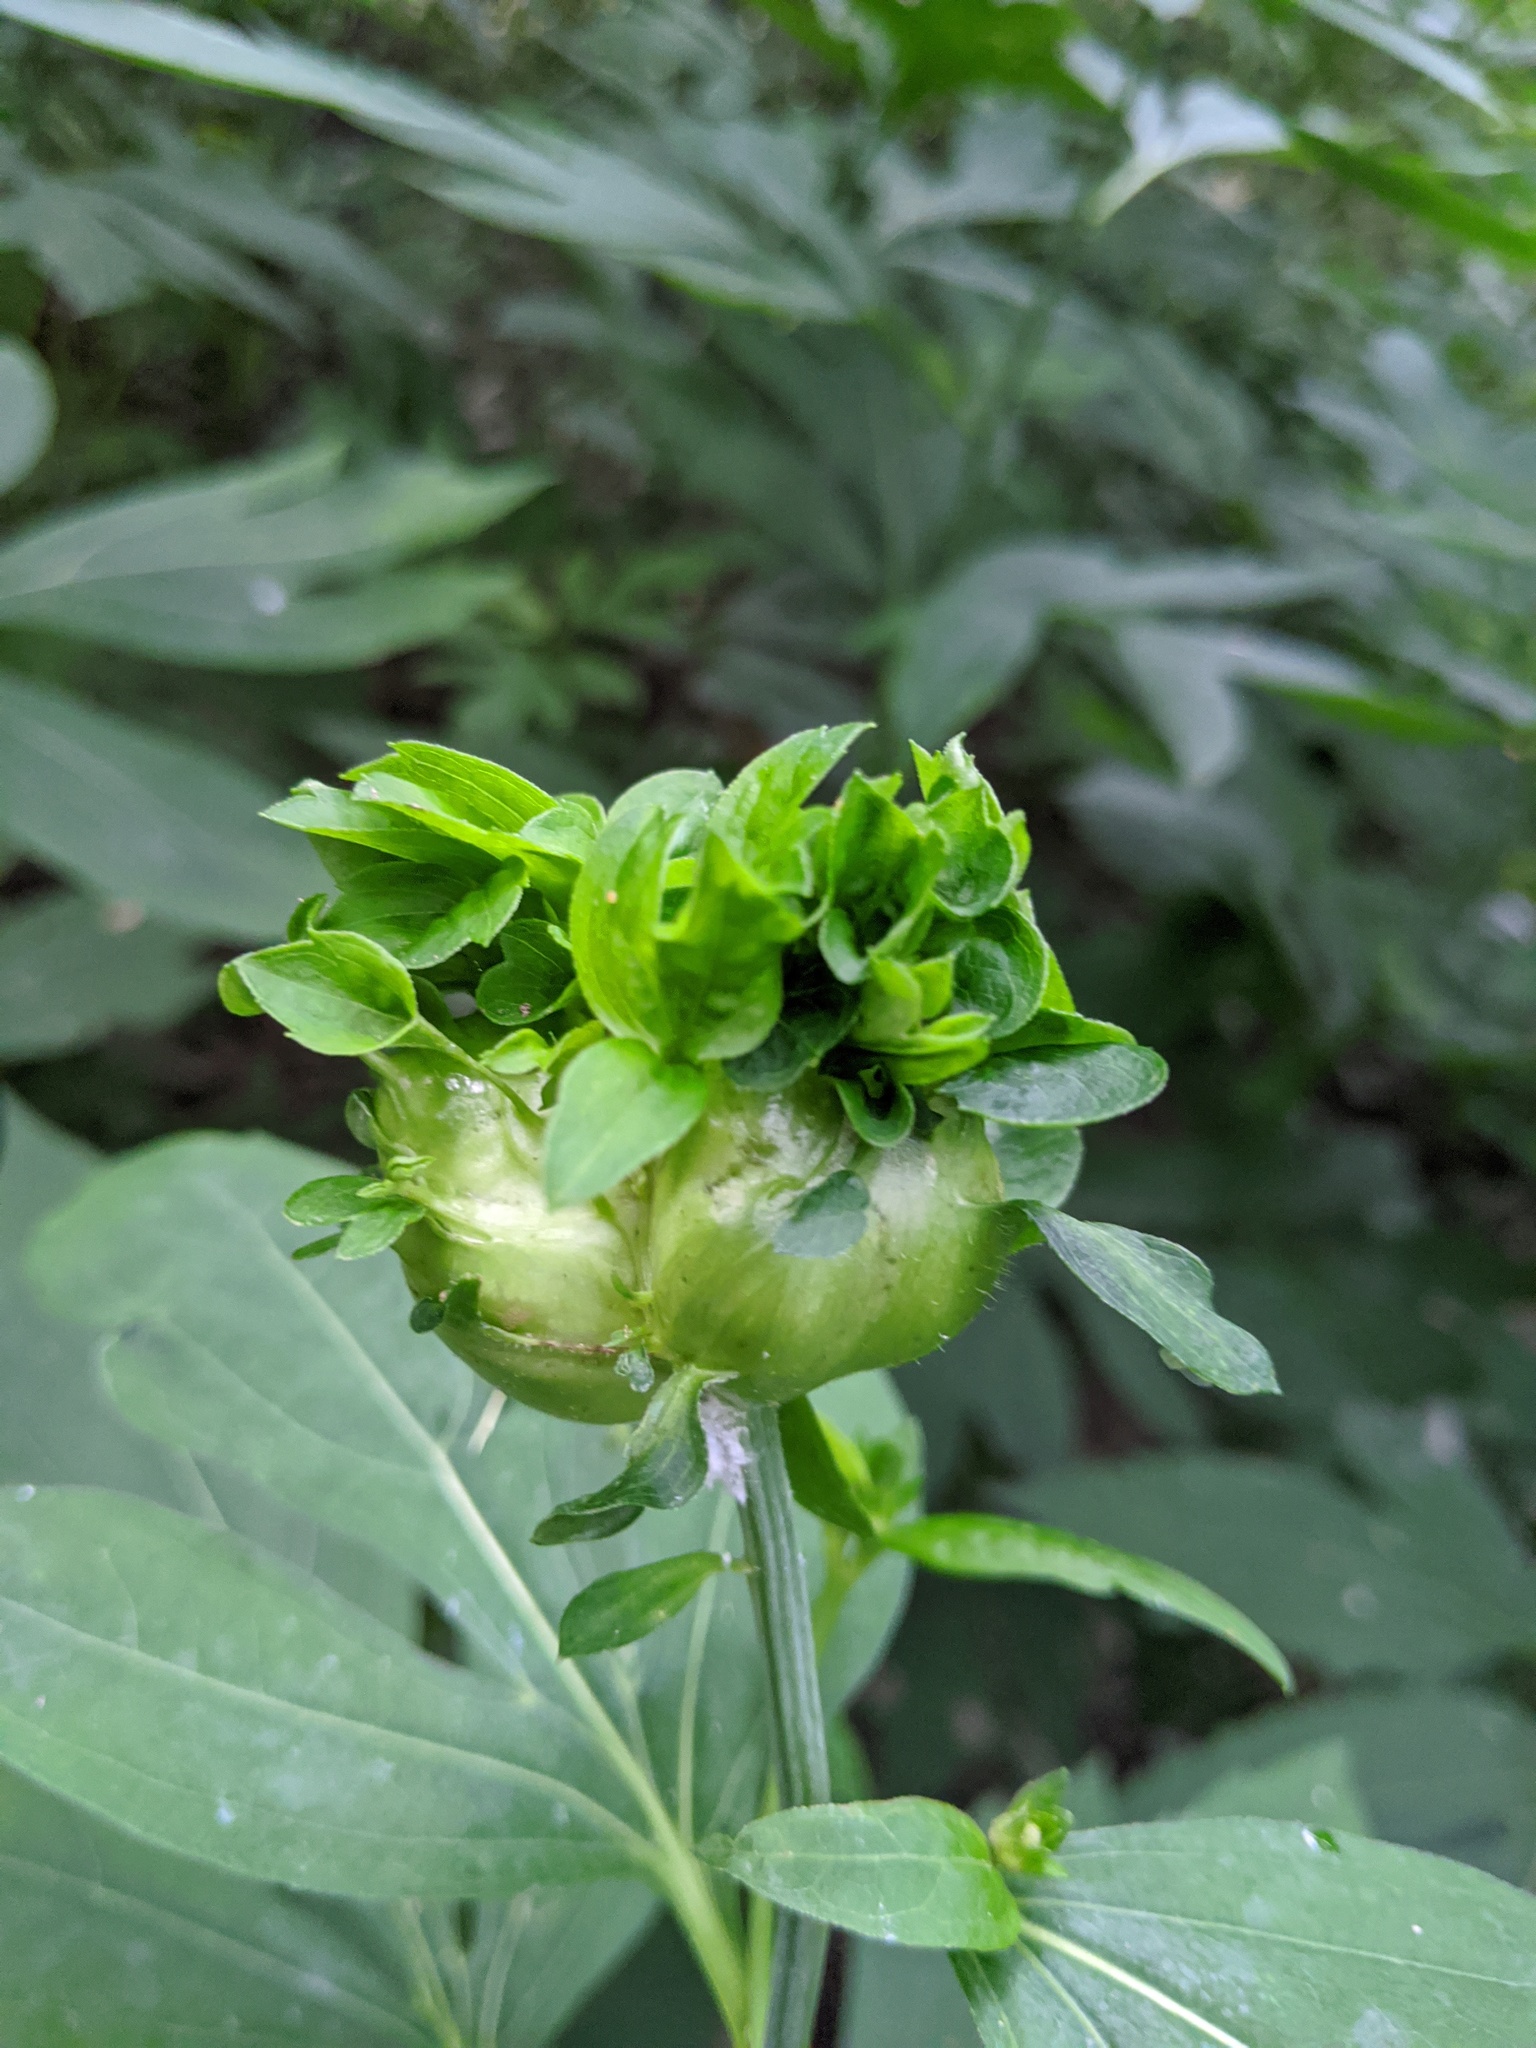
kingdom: Animalia
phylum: Arthropoda
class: Insecta
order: Diptera
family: Cecidomyiidae
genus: Asphondylia
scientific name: Asphondylia rudbeckiaeconspicua
